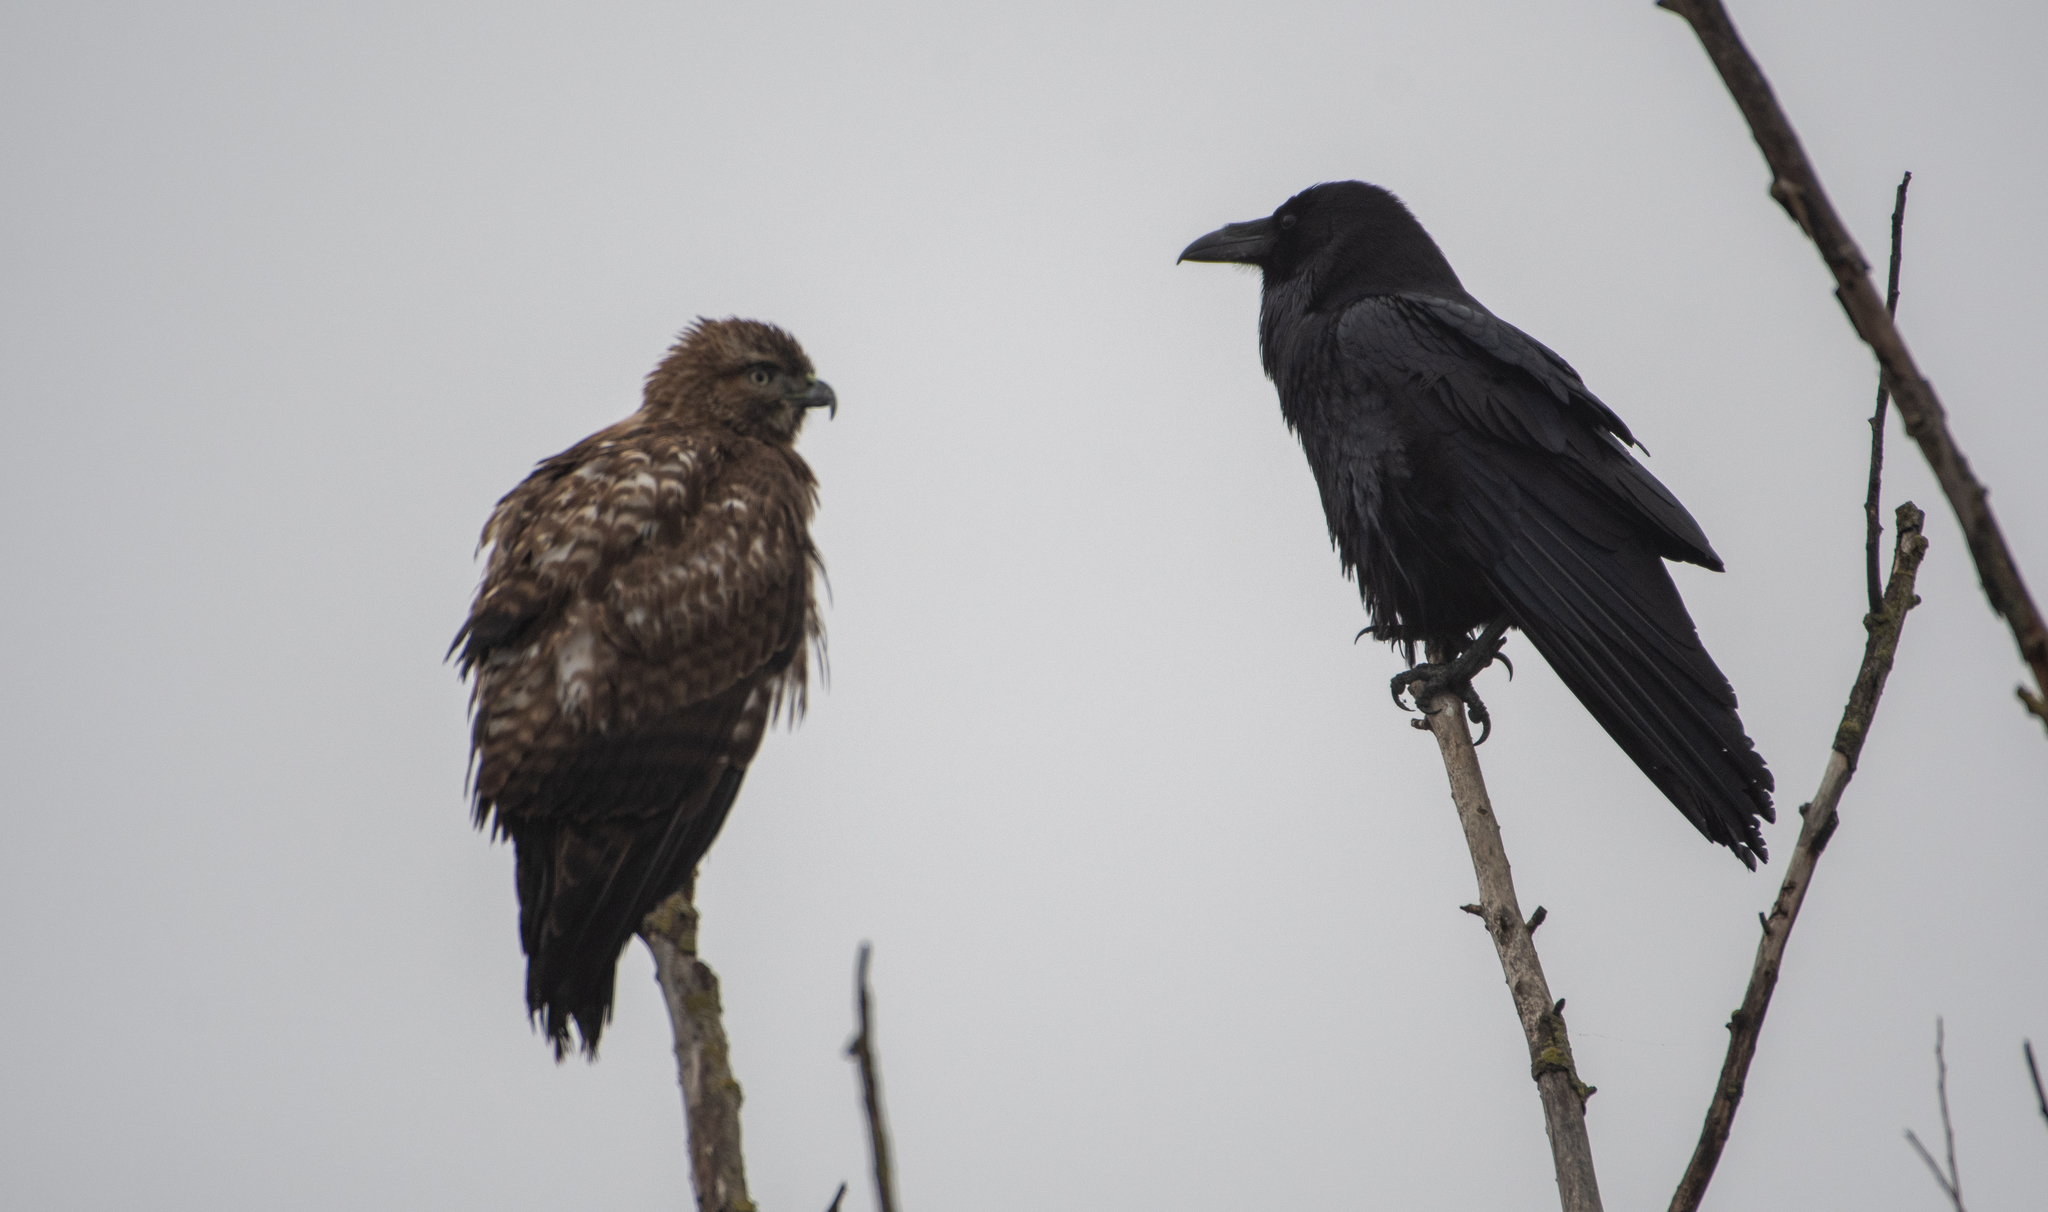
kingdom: Animalia
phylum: Chordata
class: Aves
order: Accipitriformes
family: Accipitridae
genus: Buteo
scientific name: Buteo jamaicensis
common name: Red-tailed hawk
